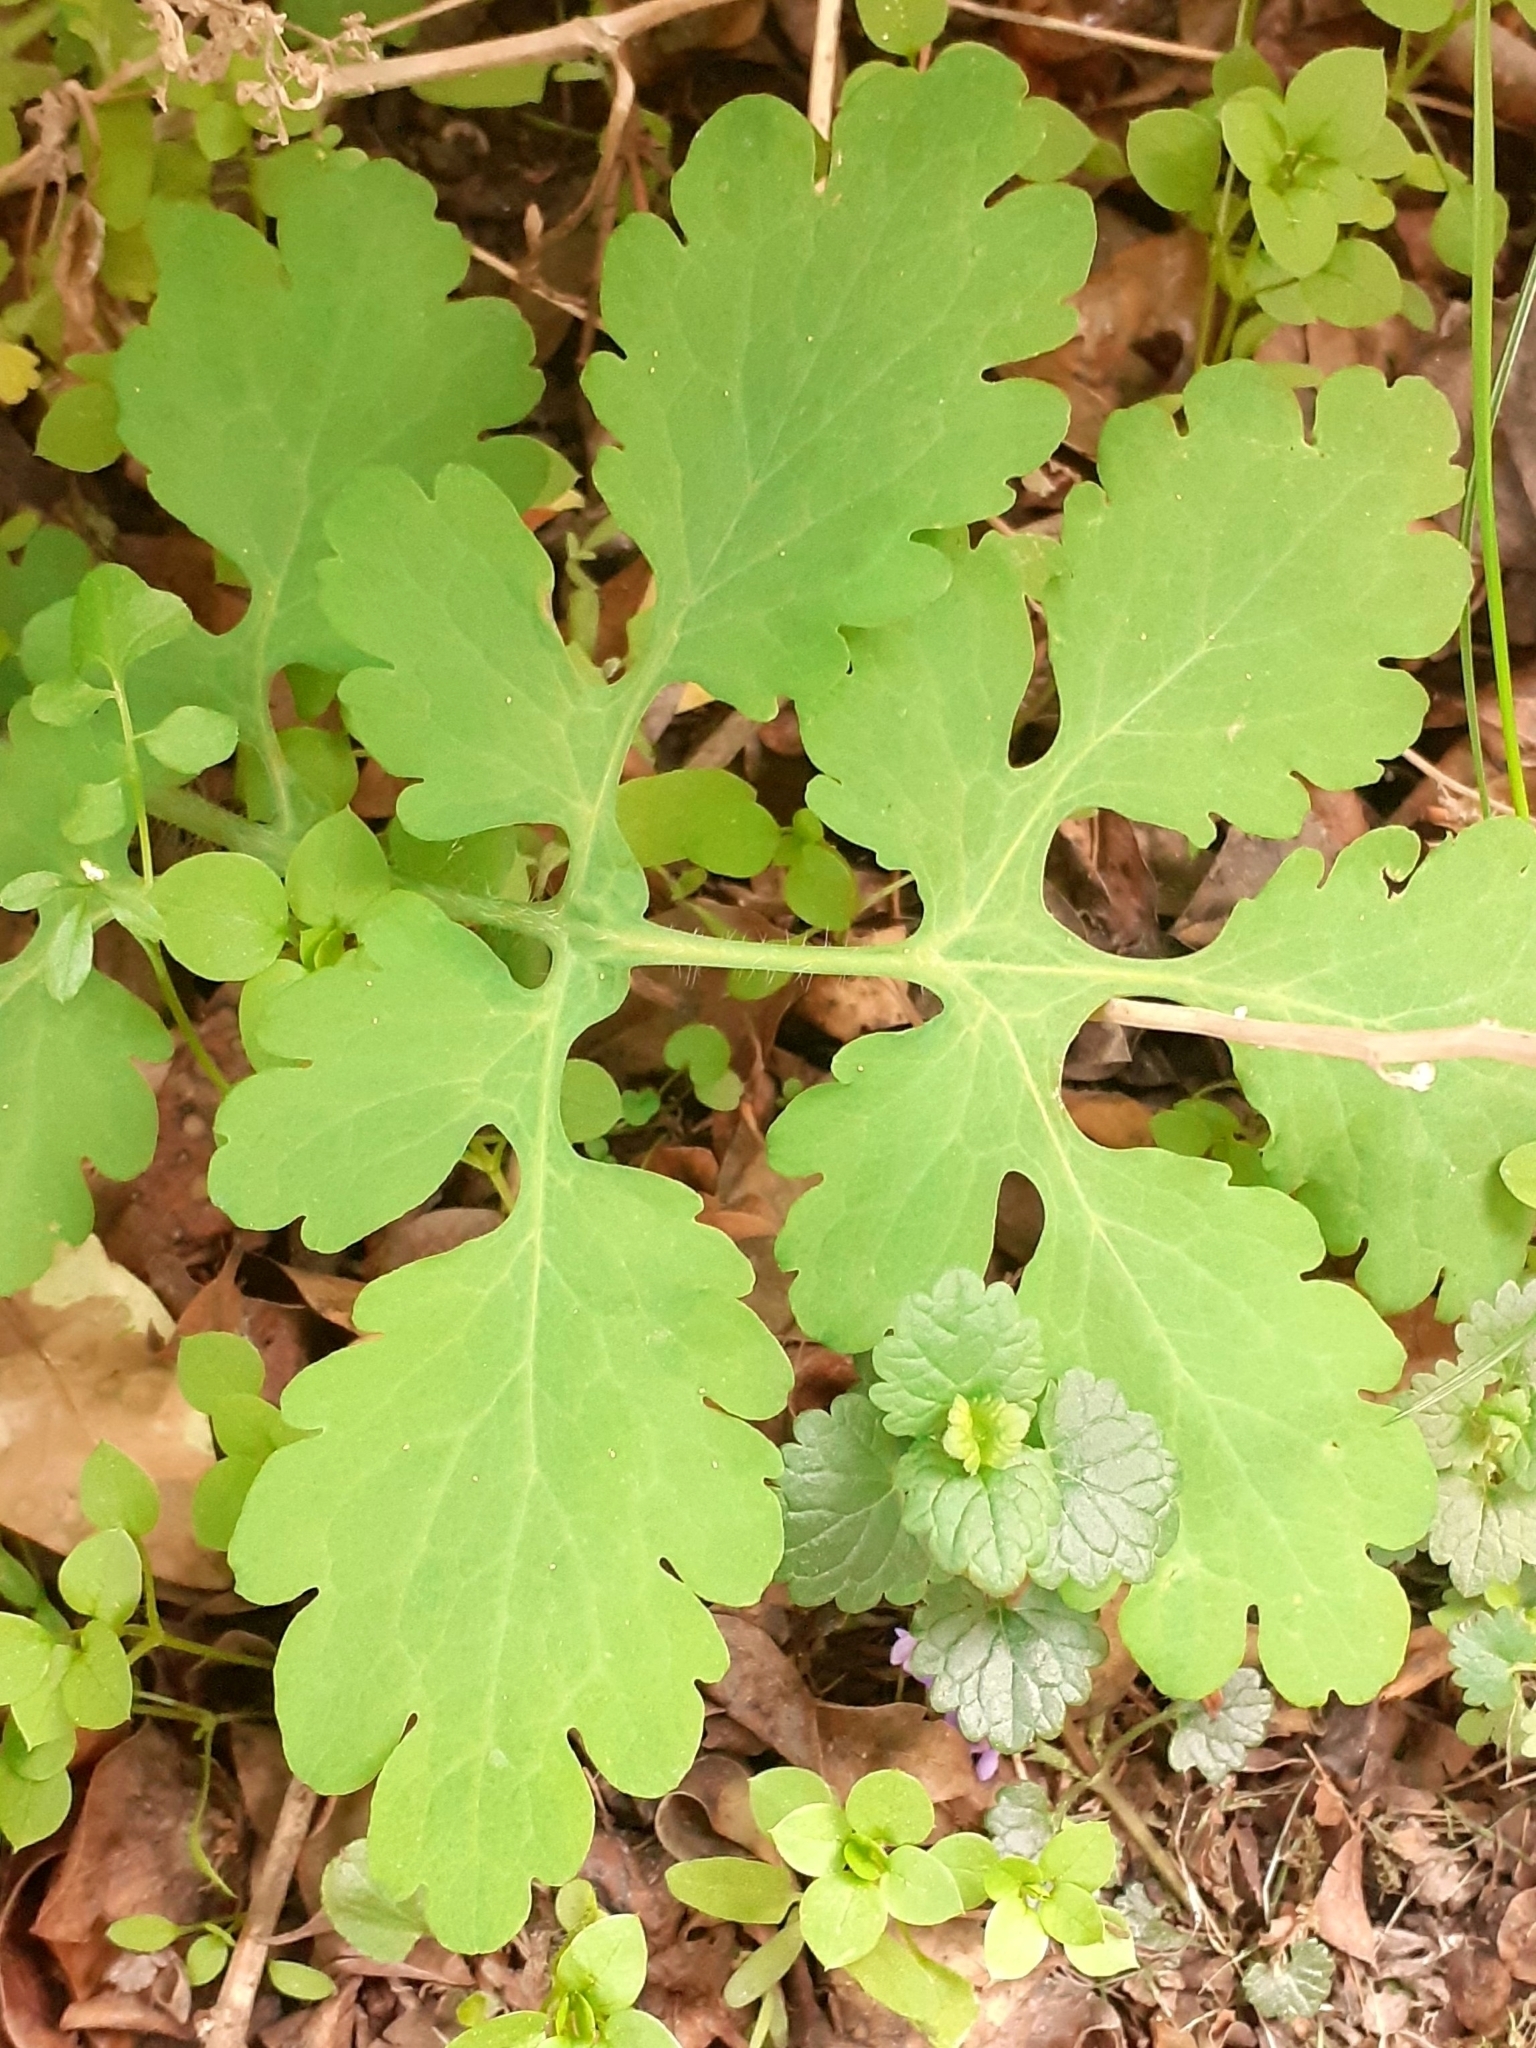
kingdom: Plantae
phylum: Tracheophyta
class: Magnoliopsida
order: Ranunculales
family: Papaveraceae
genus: Chelidonium
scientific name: Chelidonium majus
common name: Greater celandine
